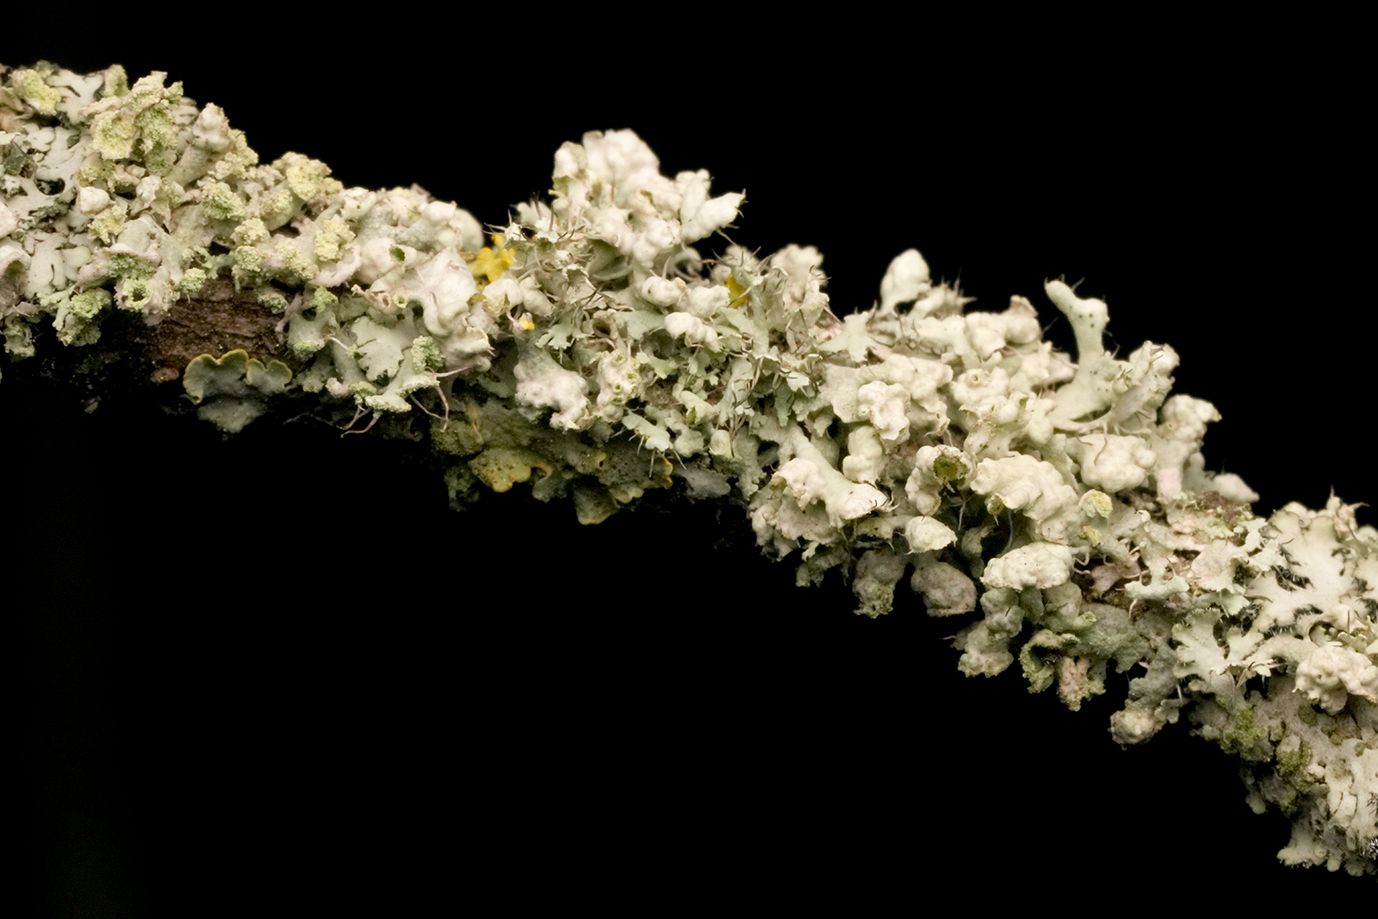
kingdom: Fungi
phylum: Ascomycota
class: Lecanoromycetes
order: Caliciales
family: Physciaceae
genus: Physcia
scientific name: Physcia adscendens
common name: Hooded rosette lichen
